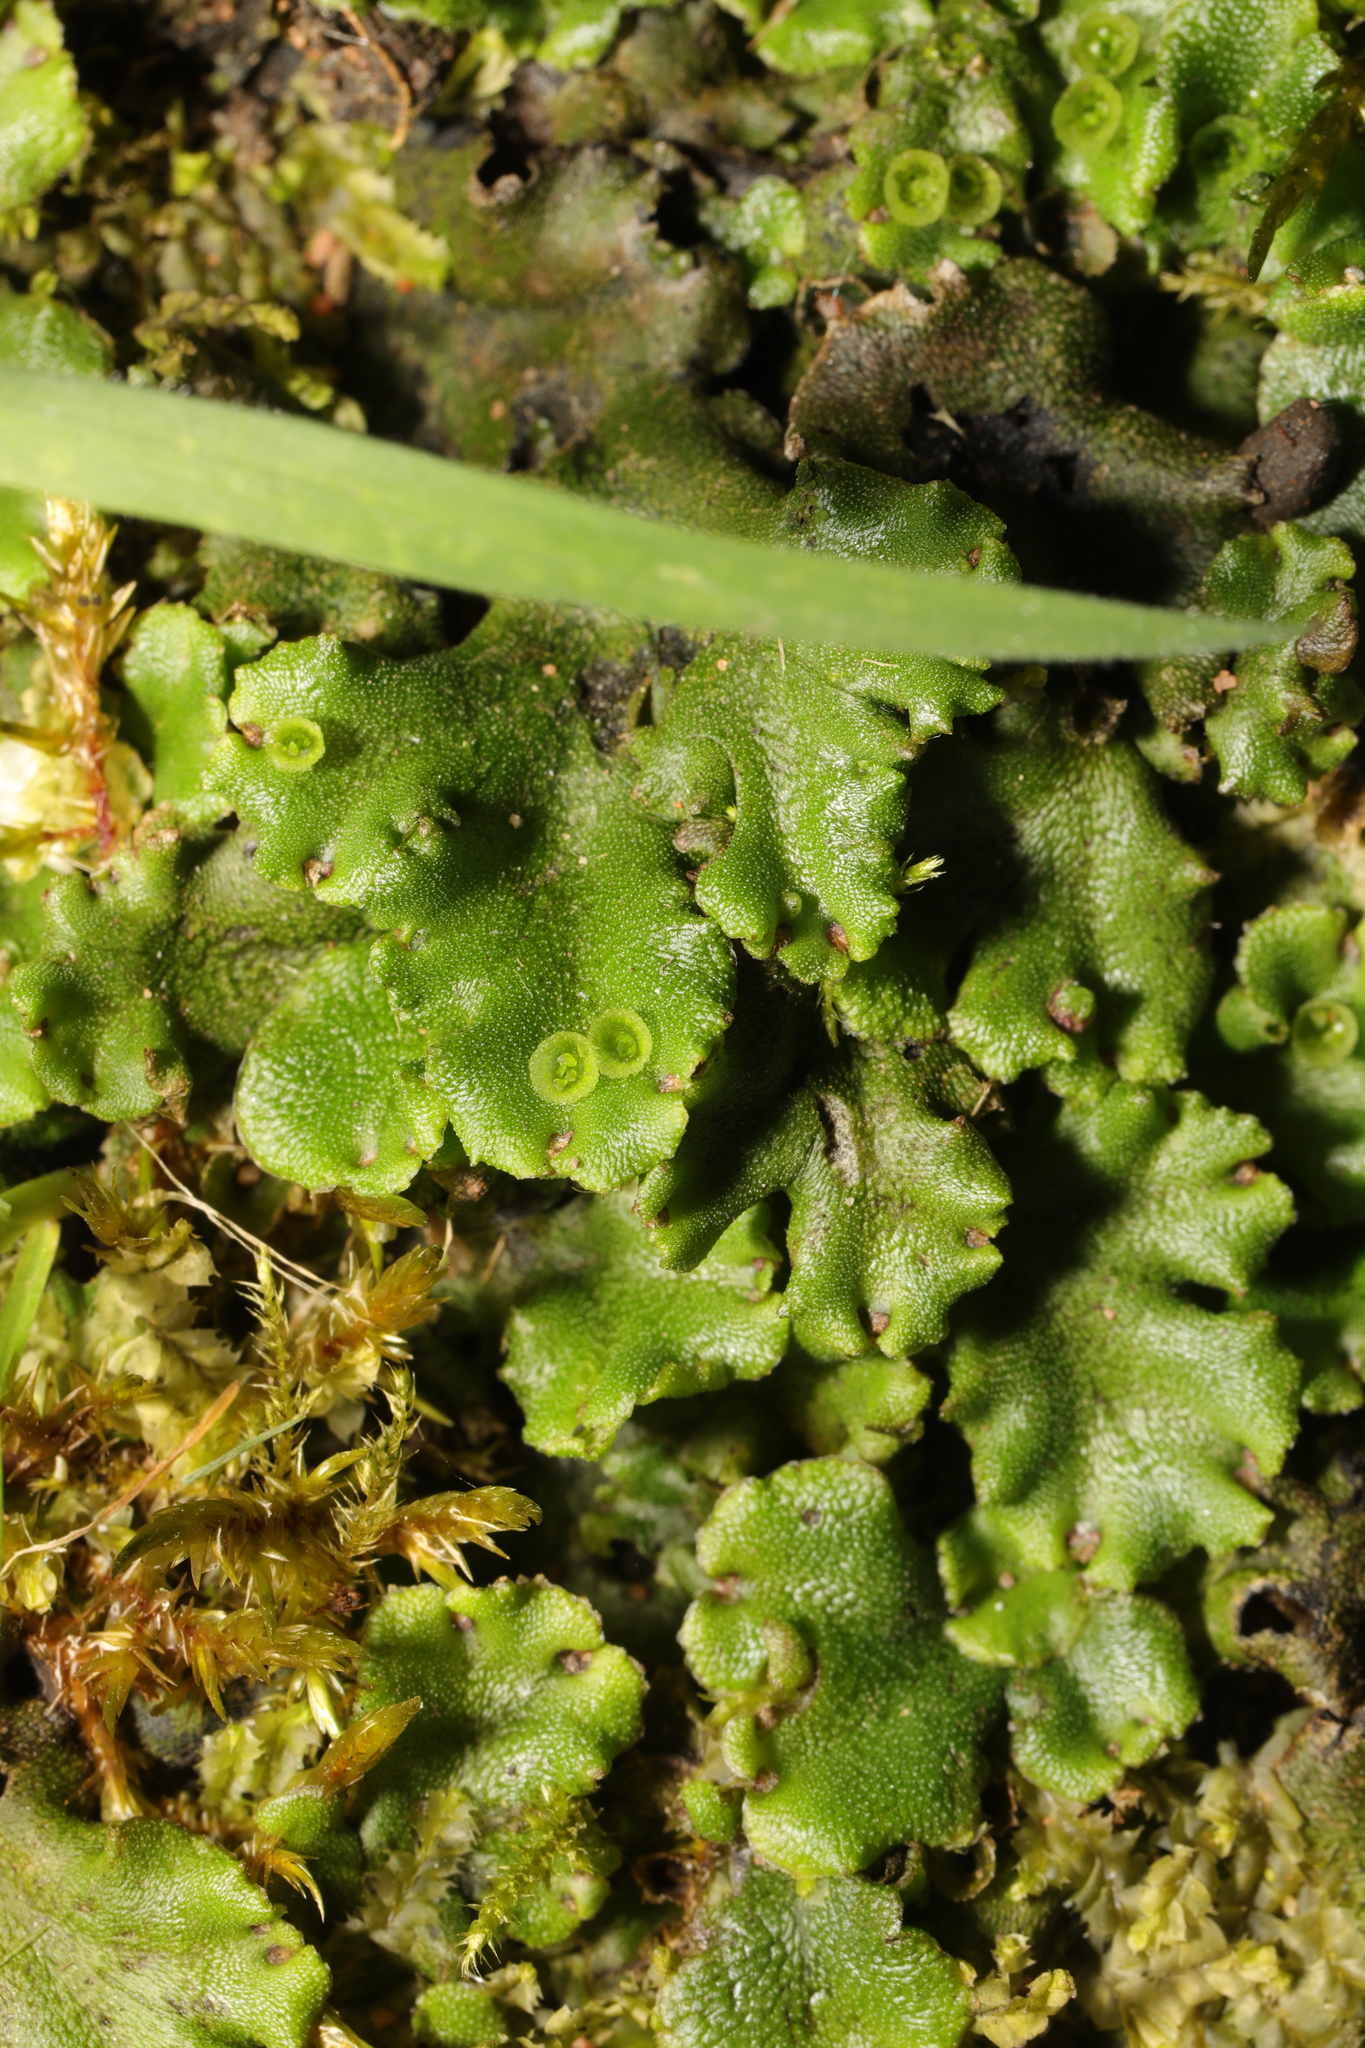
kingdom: Plantae
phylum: Marchantiophyta
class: Marchantiopsida
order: Marchantiales
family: Marchantiaceae
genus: Marchantia
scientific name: Marchantia polymorpha
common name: Common liverwort
